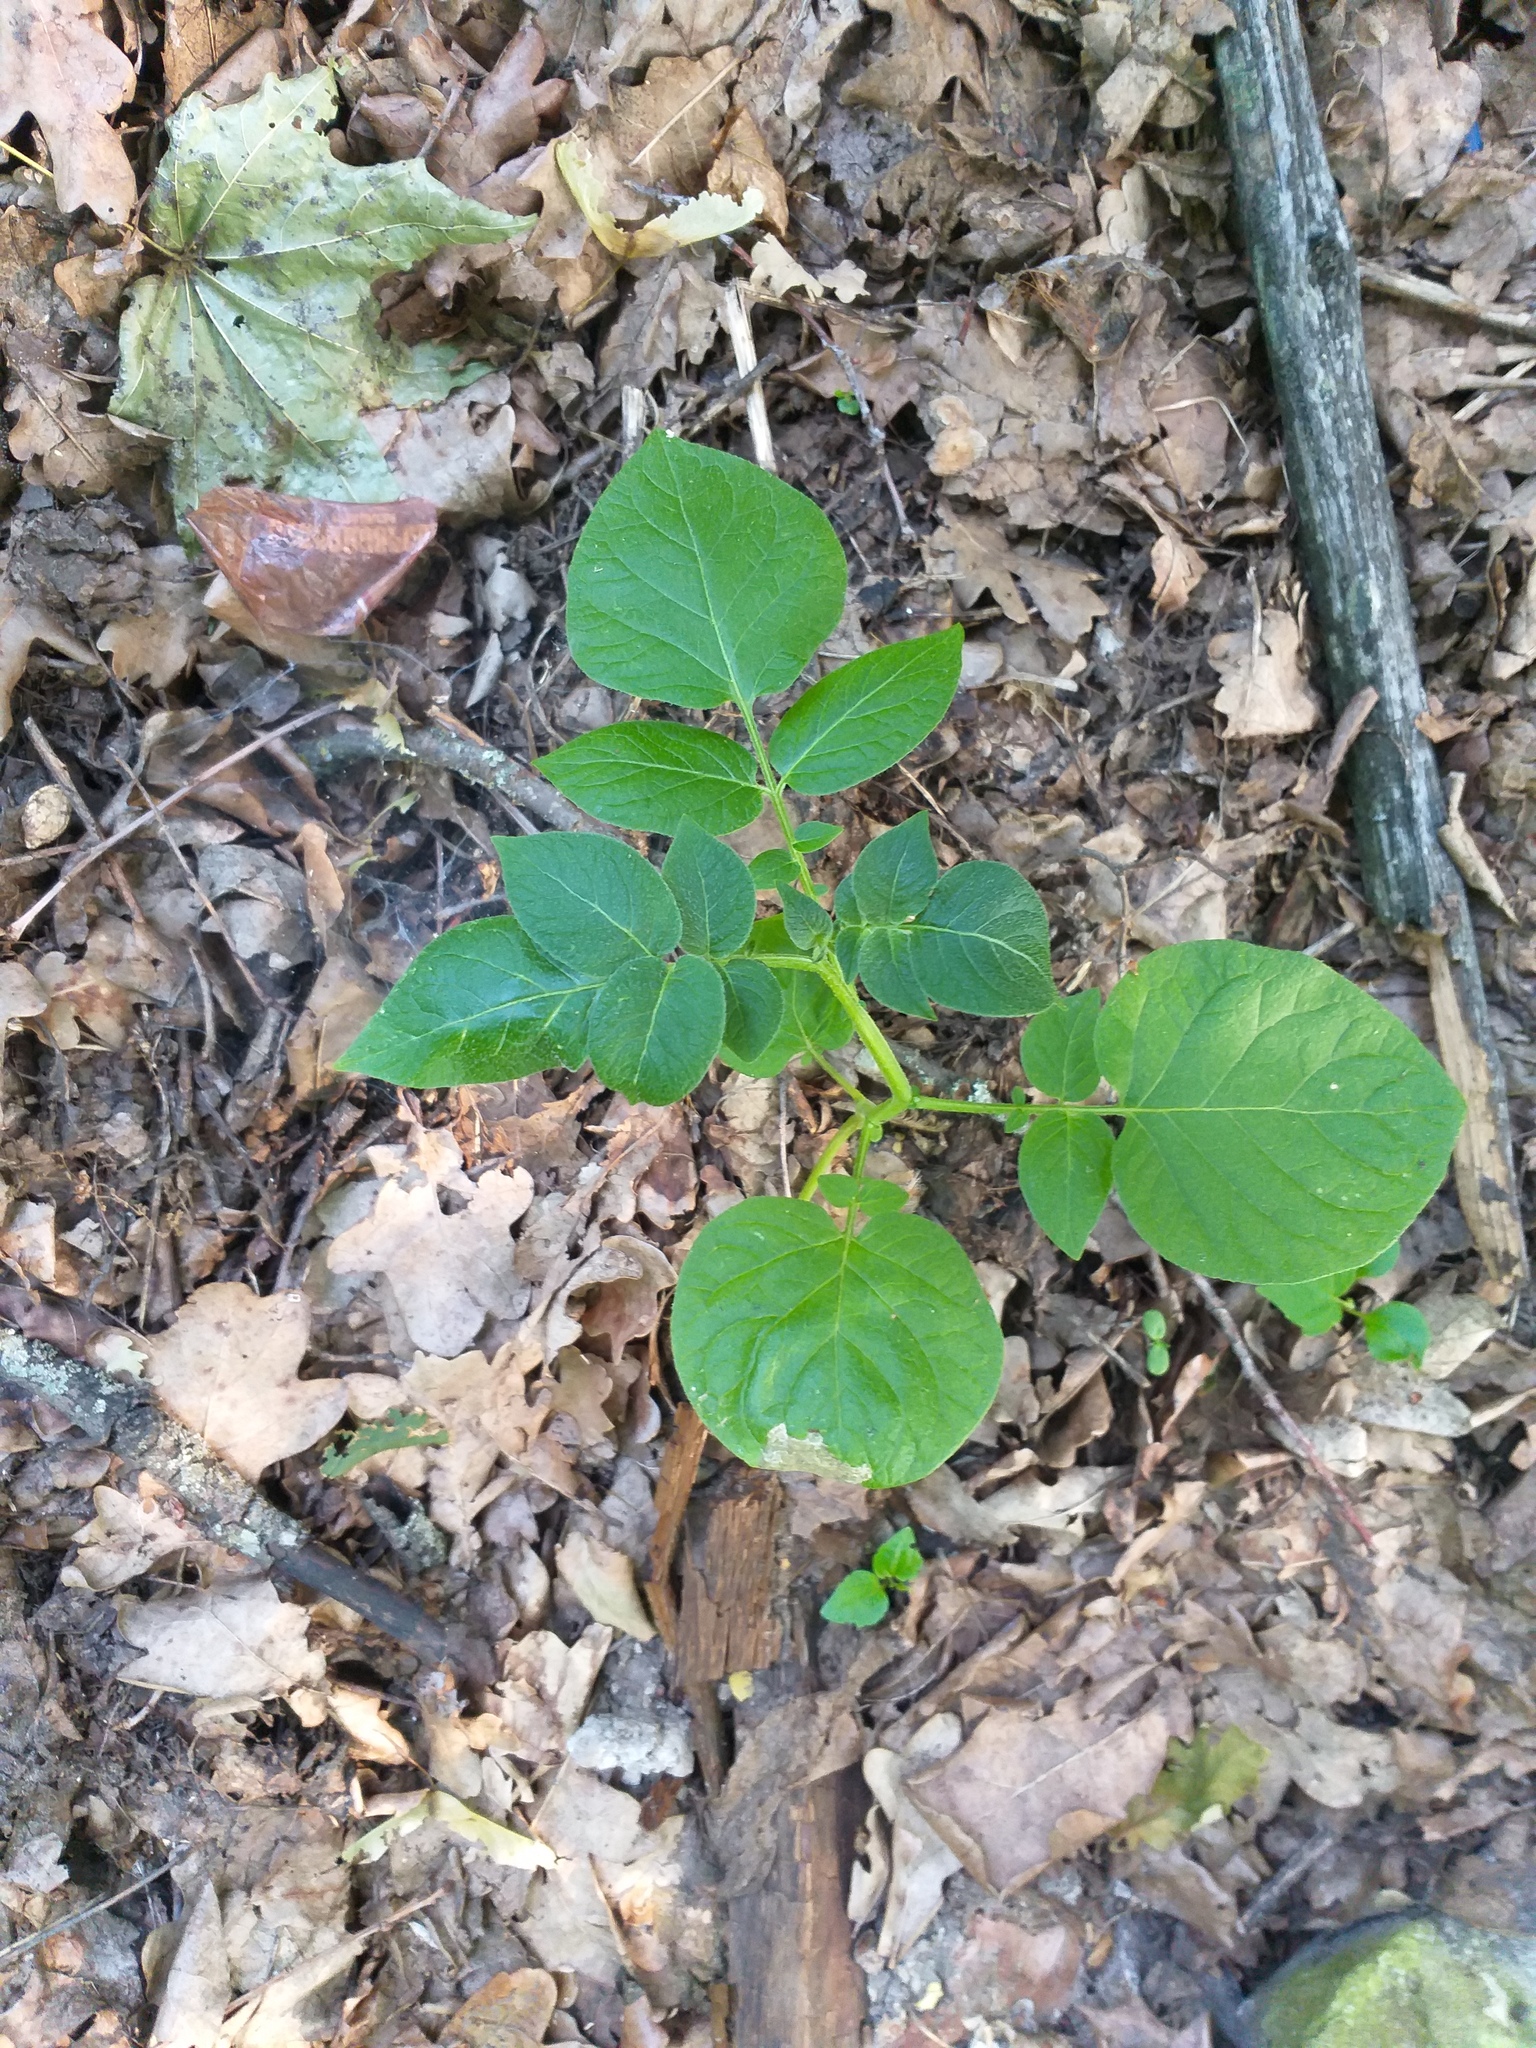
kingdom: Plantae
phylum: Tracheophyta
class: Magnoliopsida
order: Solanales
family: Solanaceae
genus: Solanum
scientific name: Solanum tuberosum
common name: Potato
